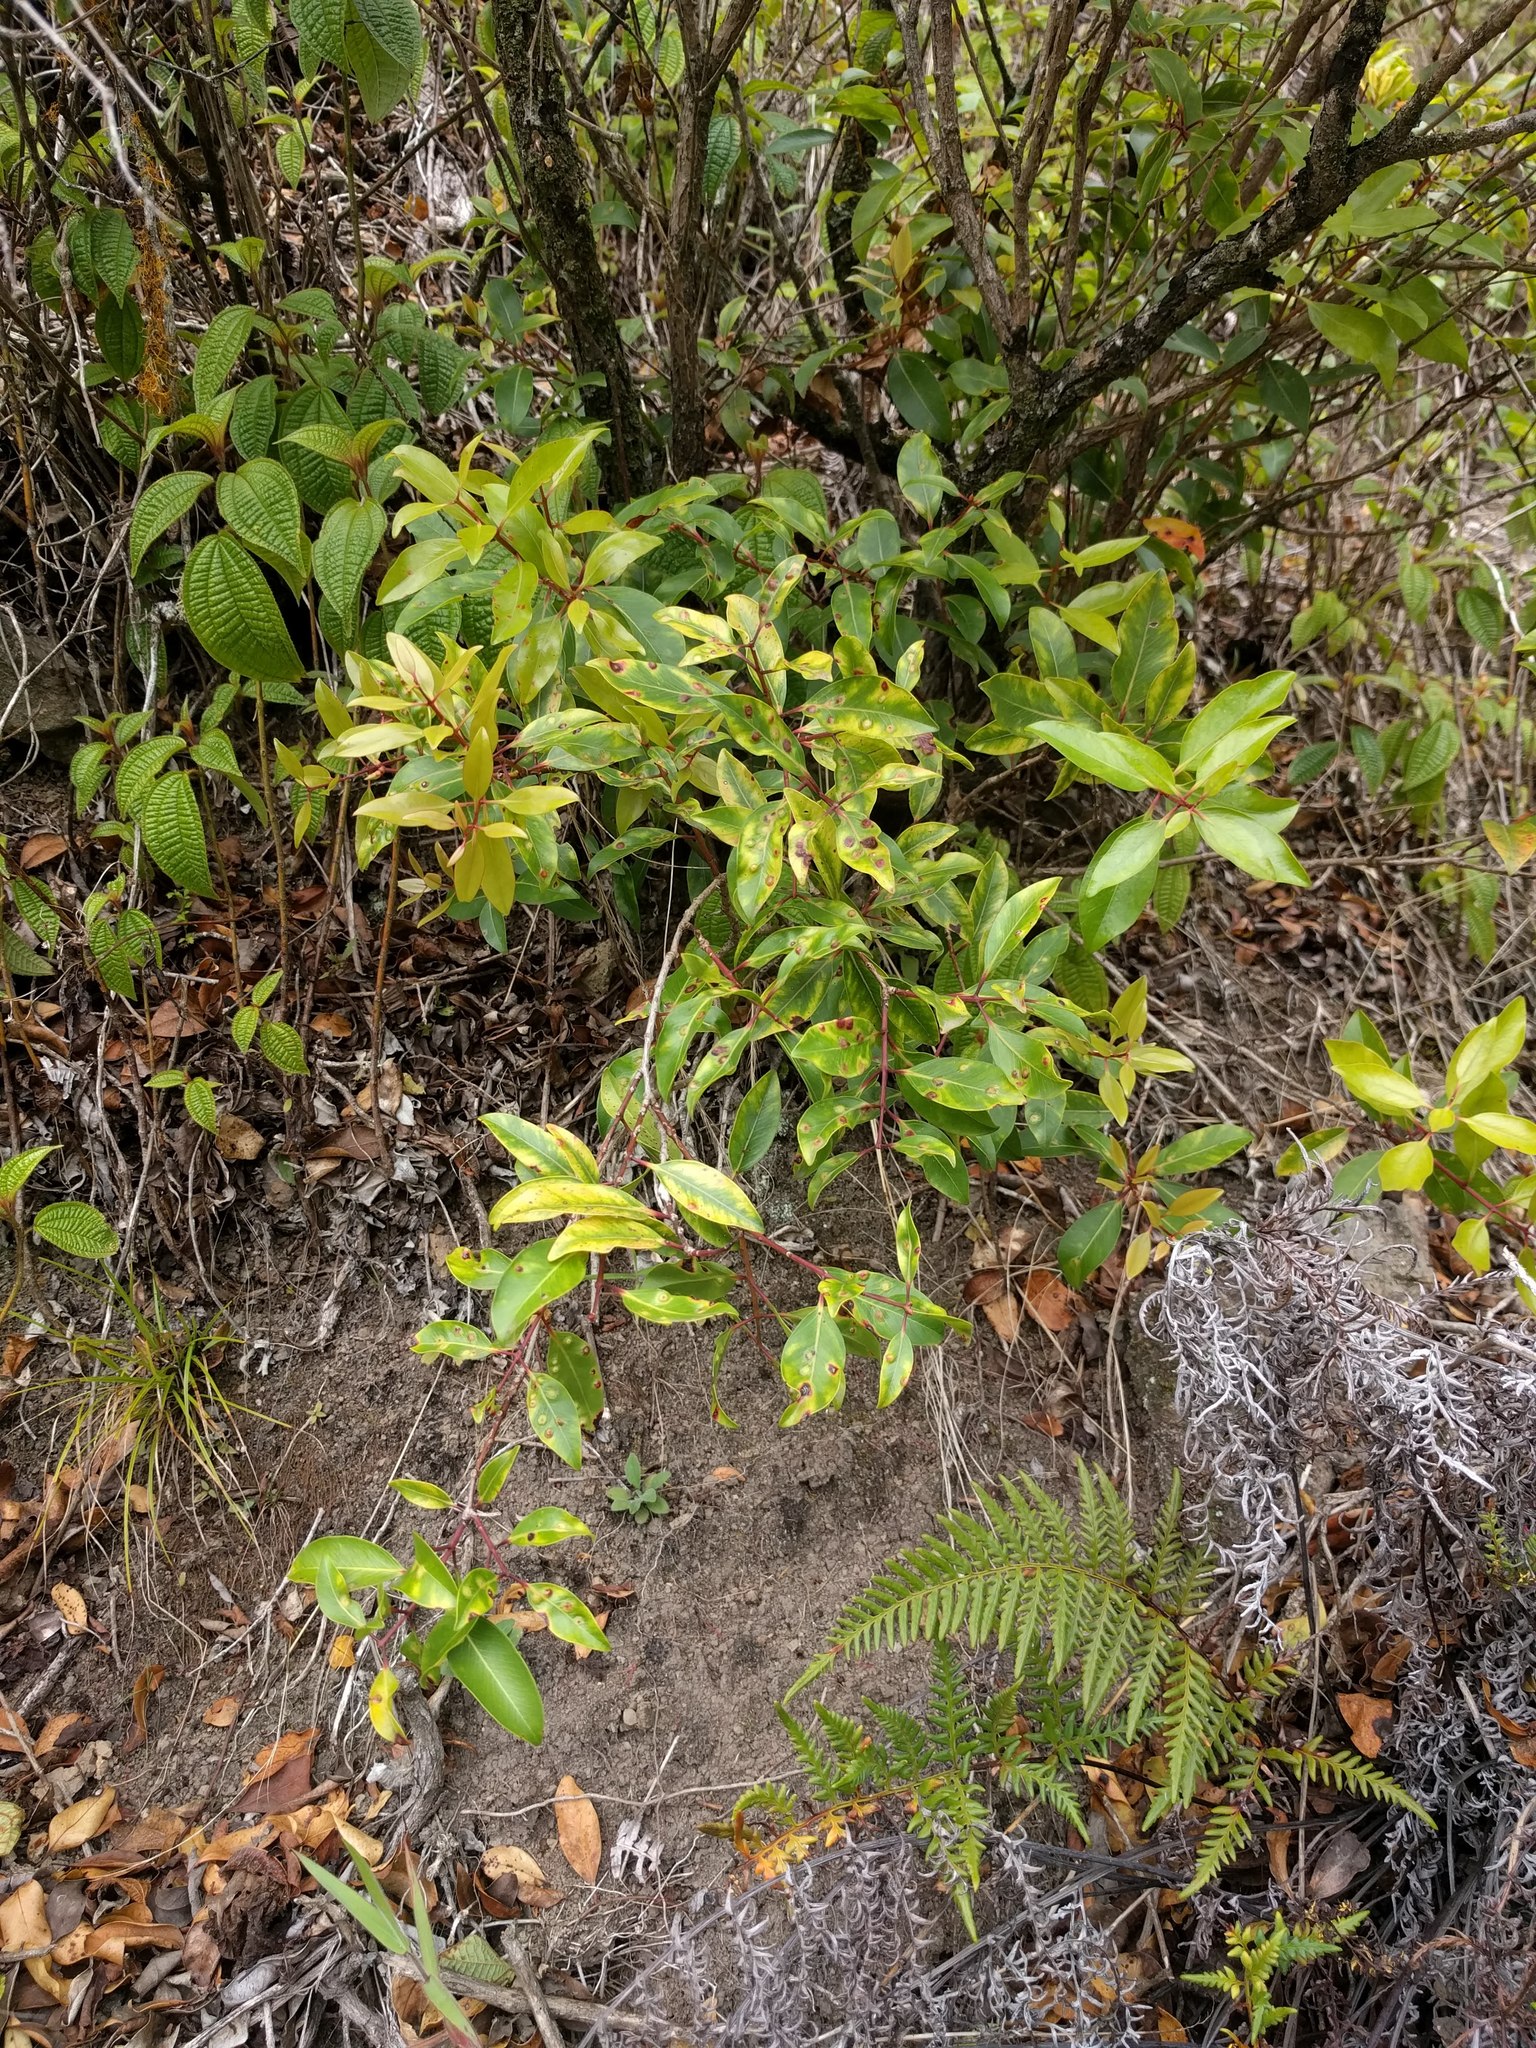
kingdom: Plantae
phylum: Tracheophyta
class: Magnoliopsida
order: Myrtales
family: Myrtaceae
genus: Metrosideros
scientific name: Metrosideros polymorpha
